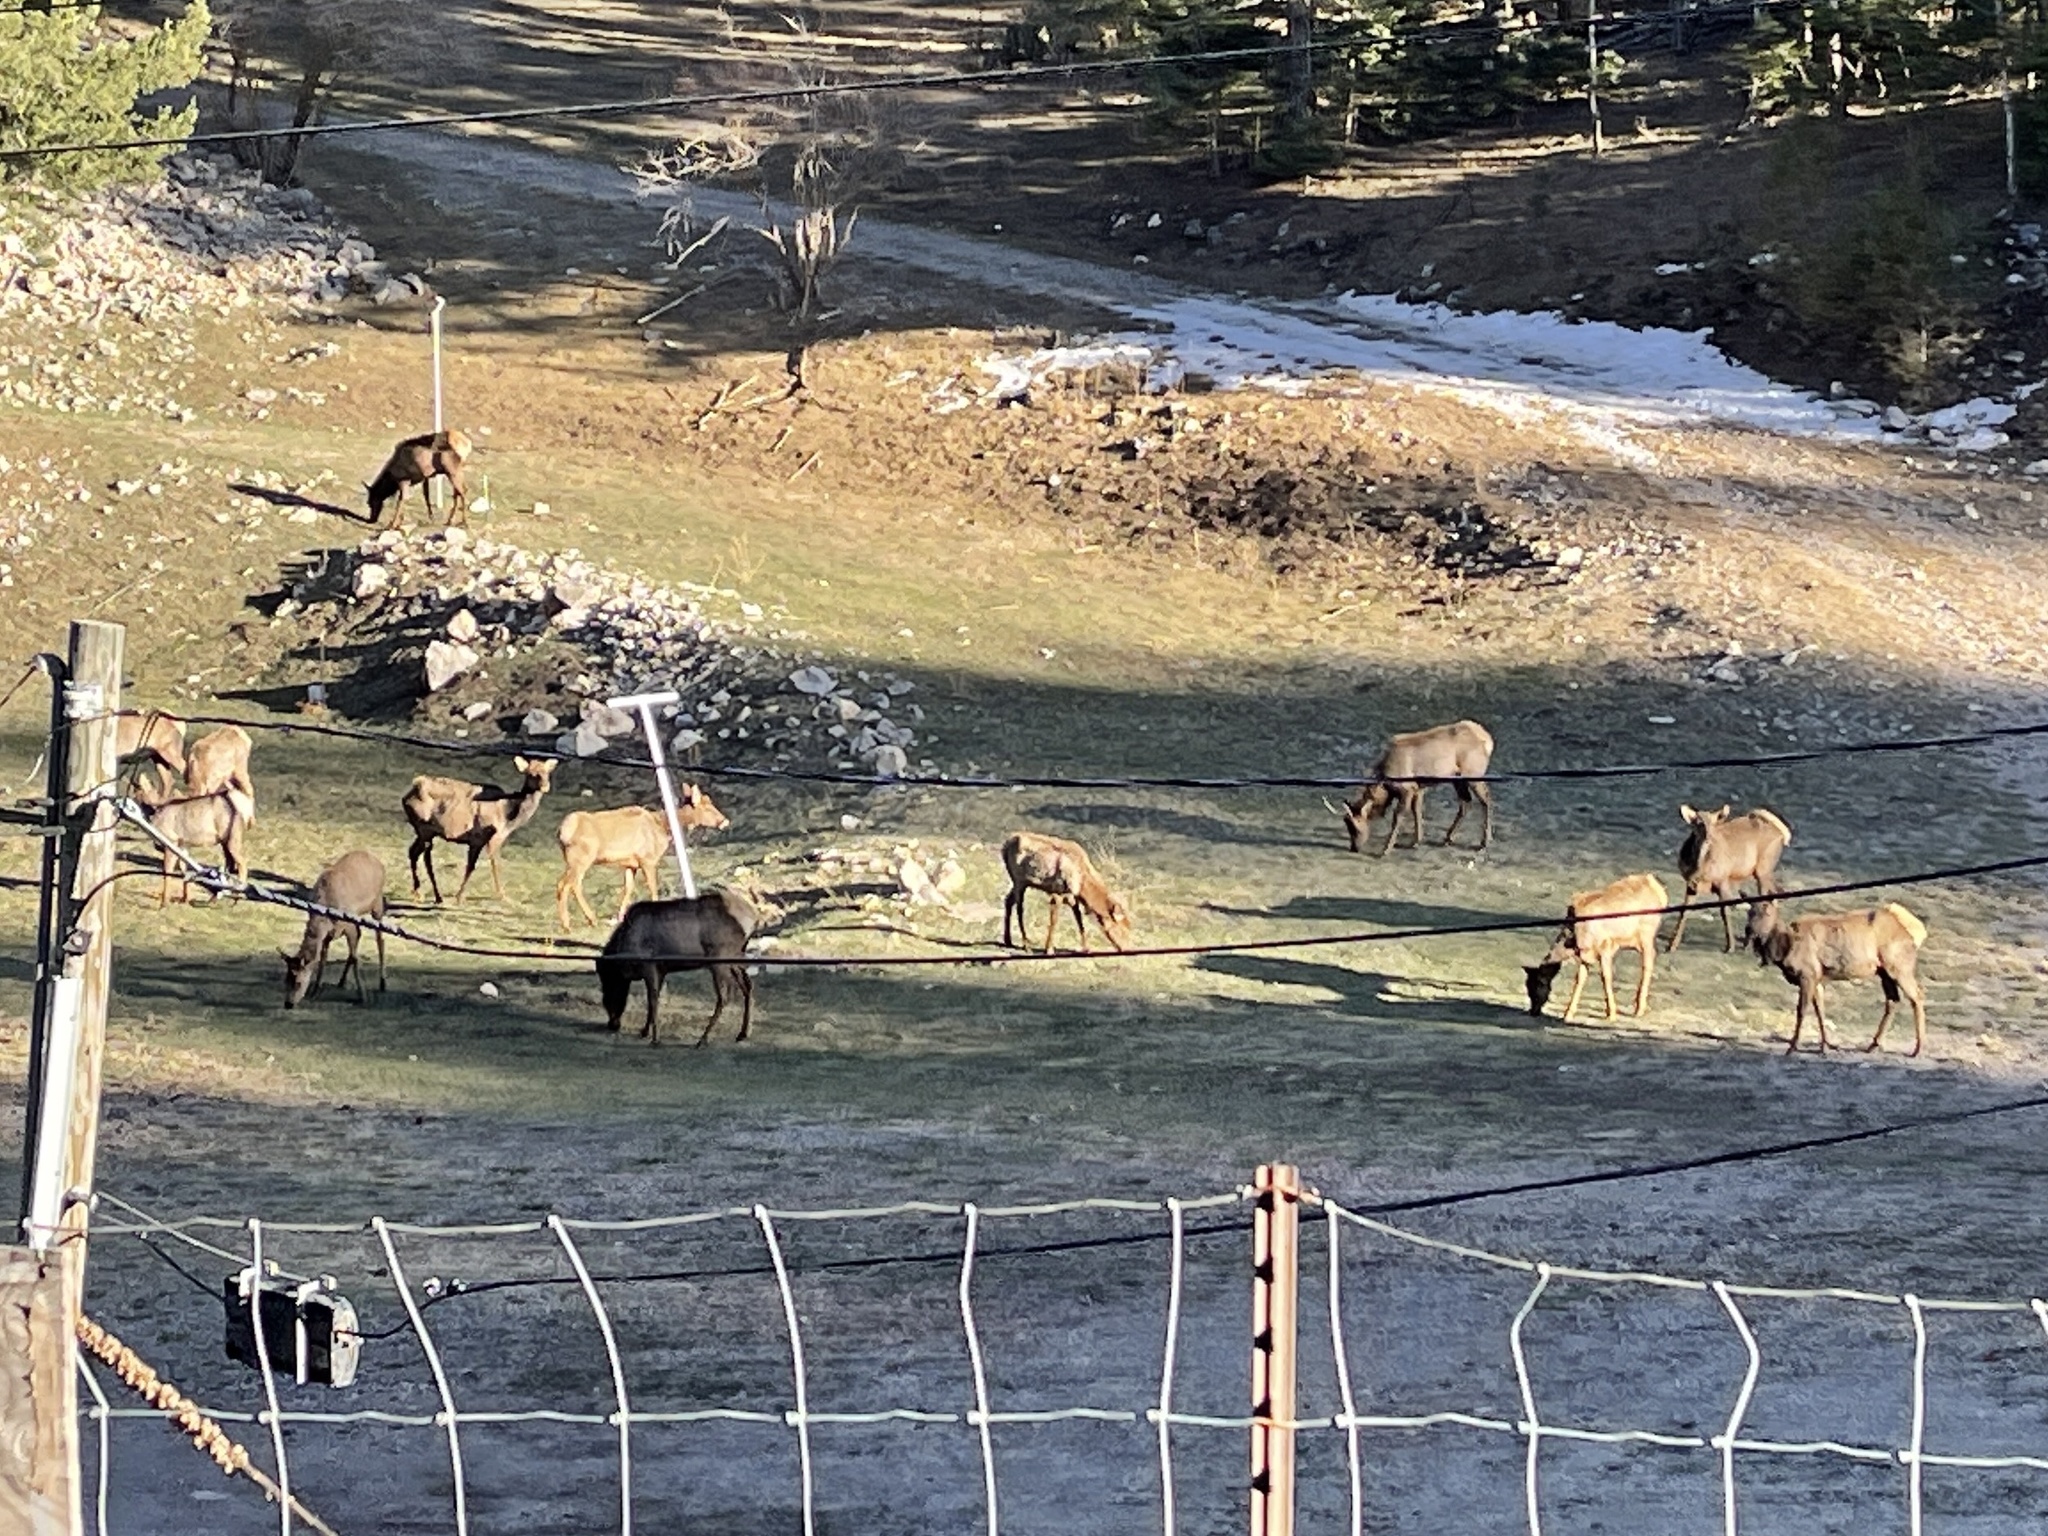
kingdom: Animalia
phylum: Chordata
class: Mammalia
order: Artiodactyla
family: Cervidae
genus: Cervus
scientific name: Cervus elaphus
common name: Red deer
